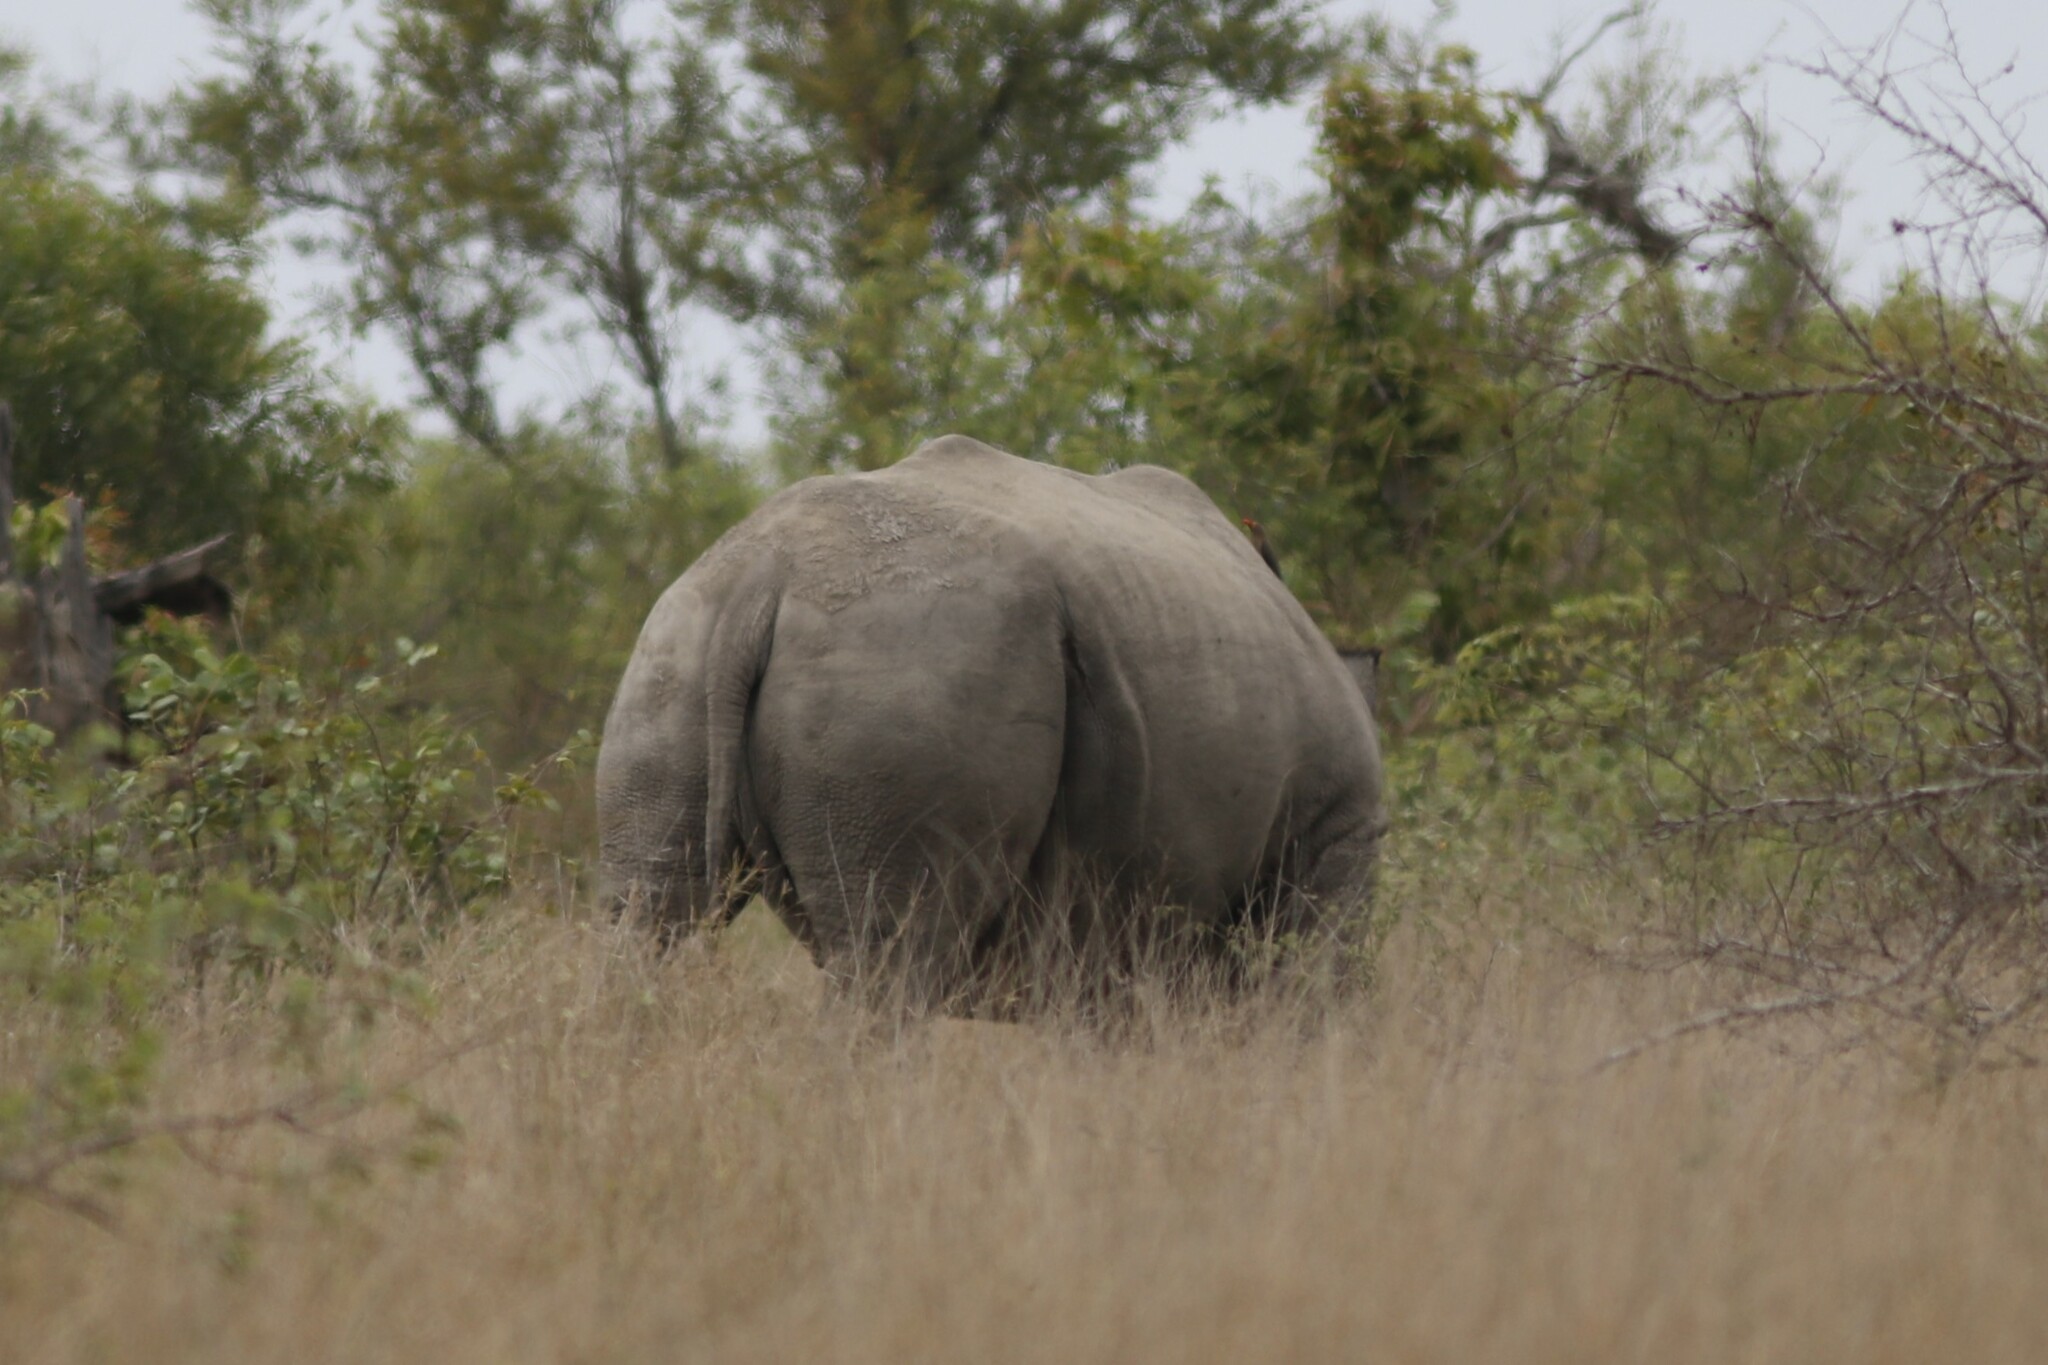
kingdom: Animalia
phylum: Chordata
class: Mammalia
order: Perissodactyla
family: Rhinocerotidae
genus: Ceratotherium
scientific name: Ceratotherium simum
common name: White rhinoceros
